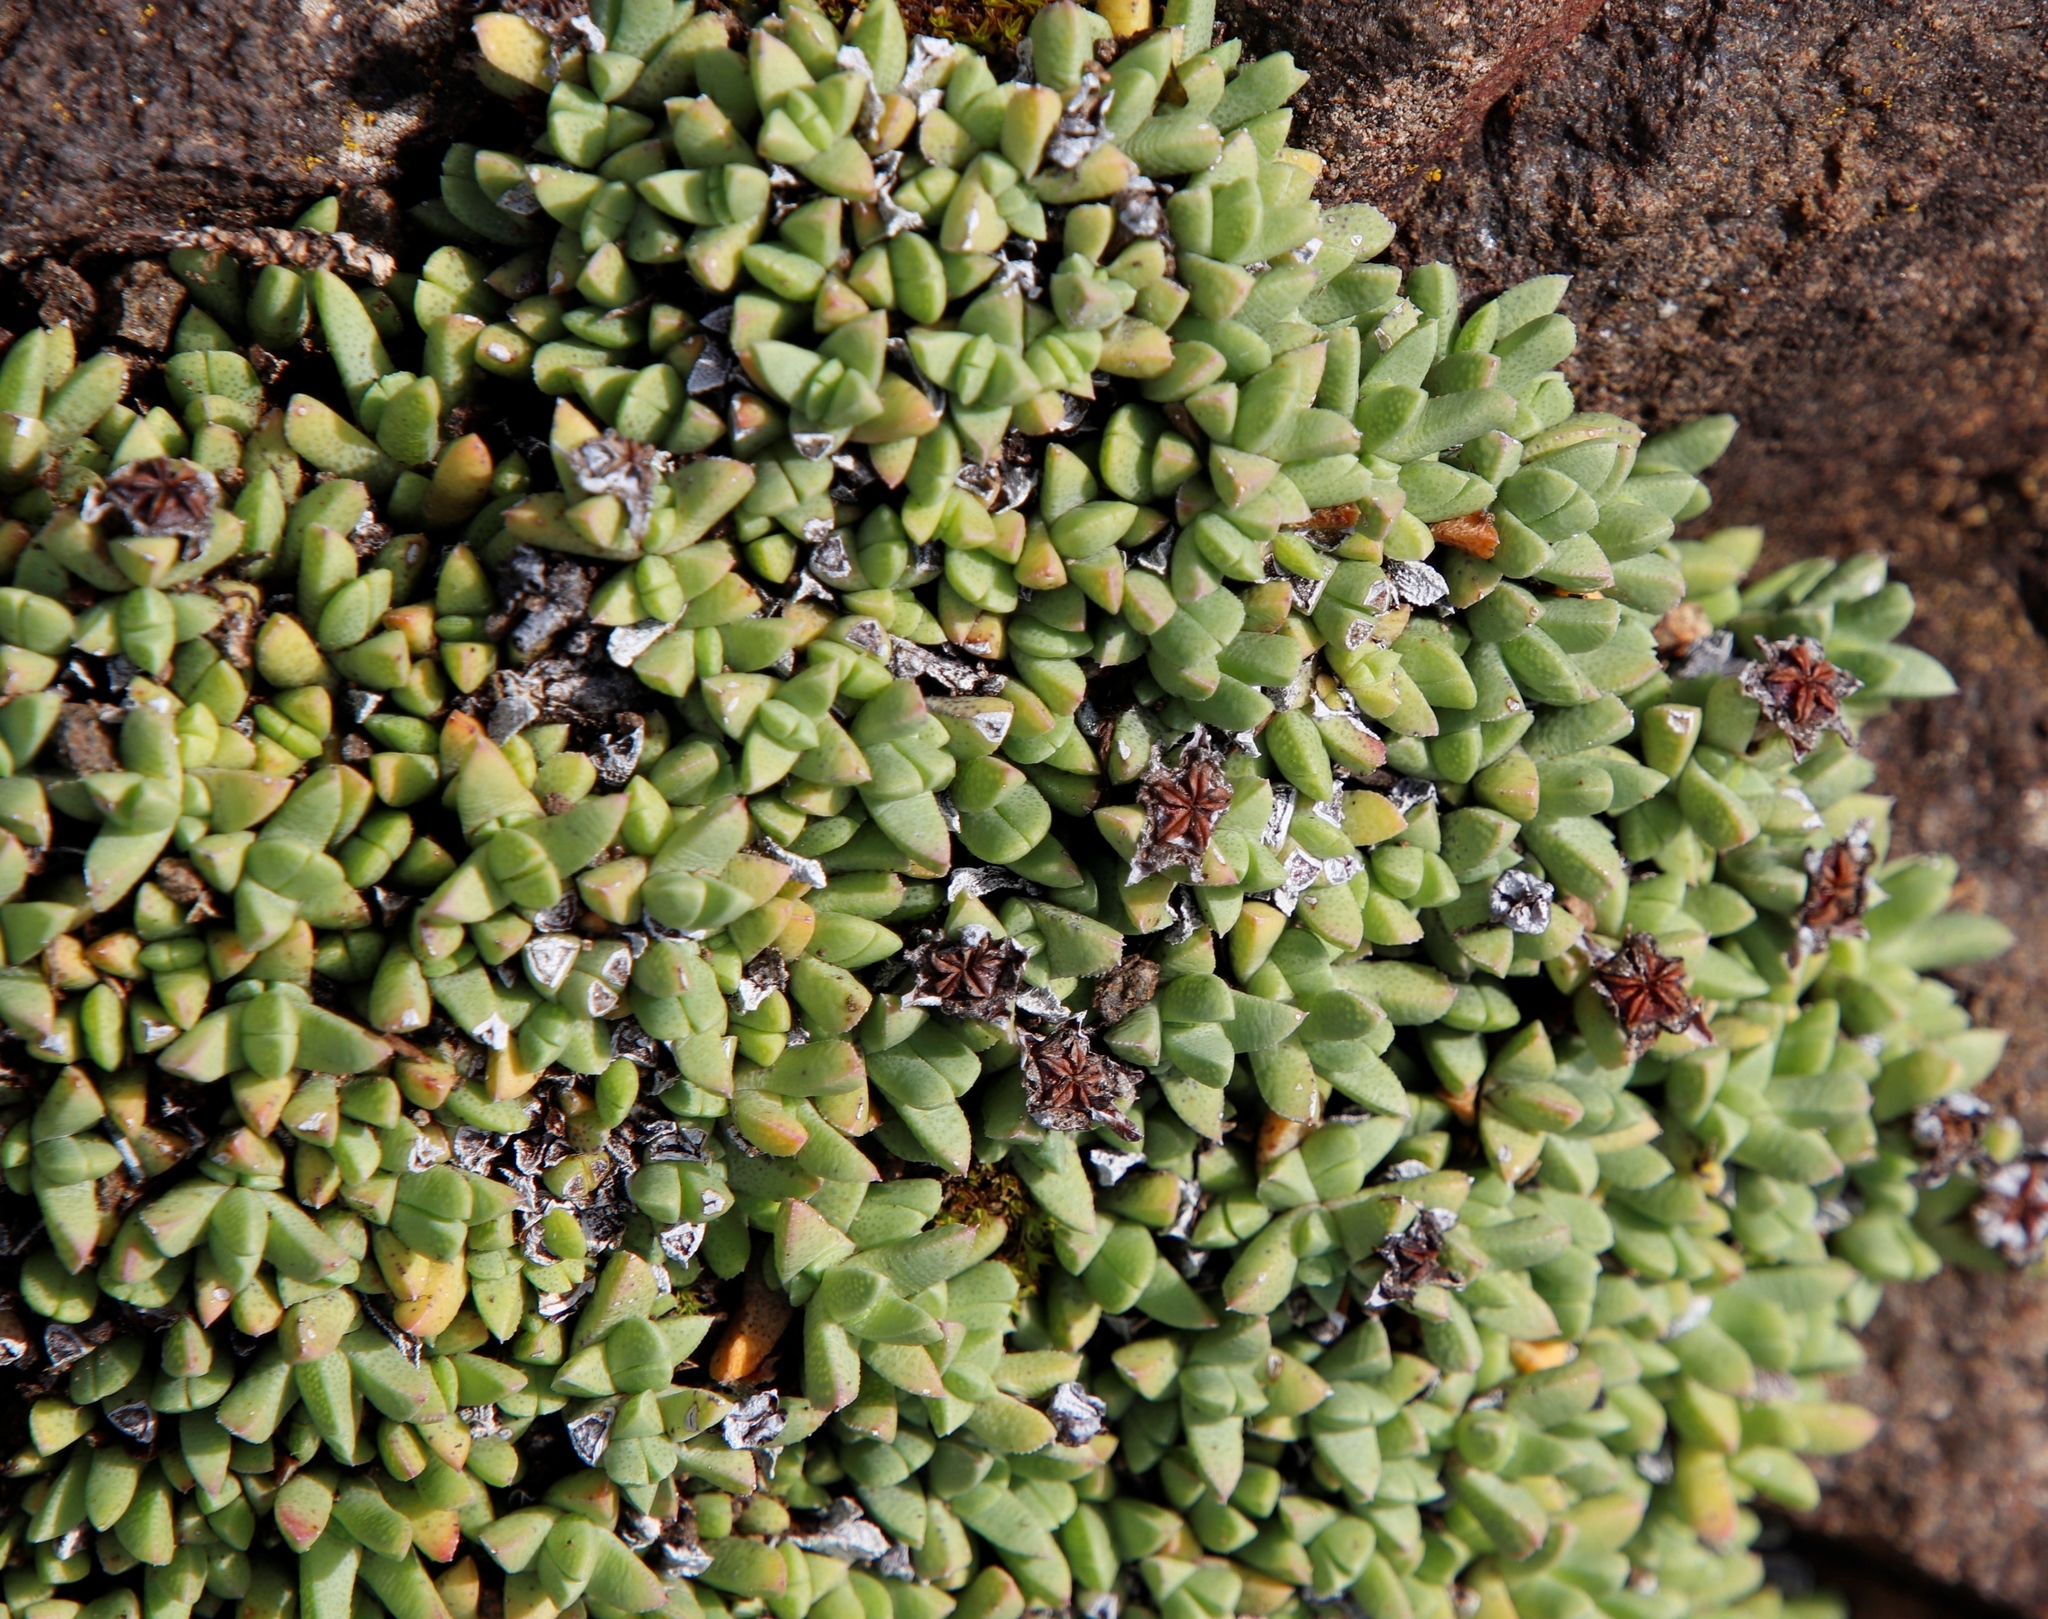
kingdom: Plantae
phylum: Tracheophyta
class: Magnoliopsida
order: Caryophyllales
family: Aizoaceae
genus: Ruschia
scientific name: Ruschia pulvinaris
